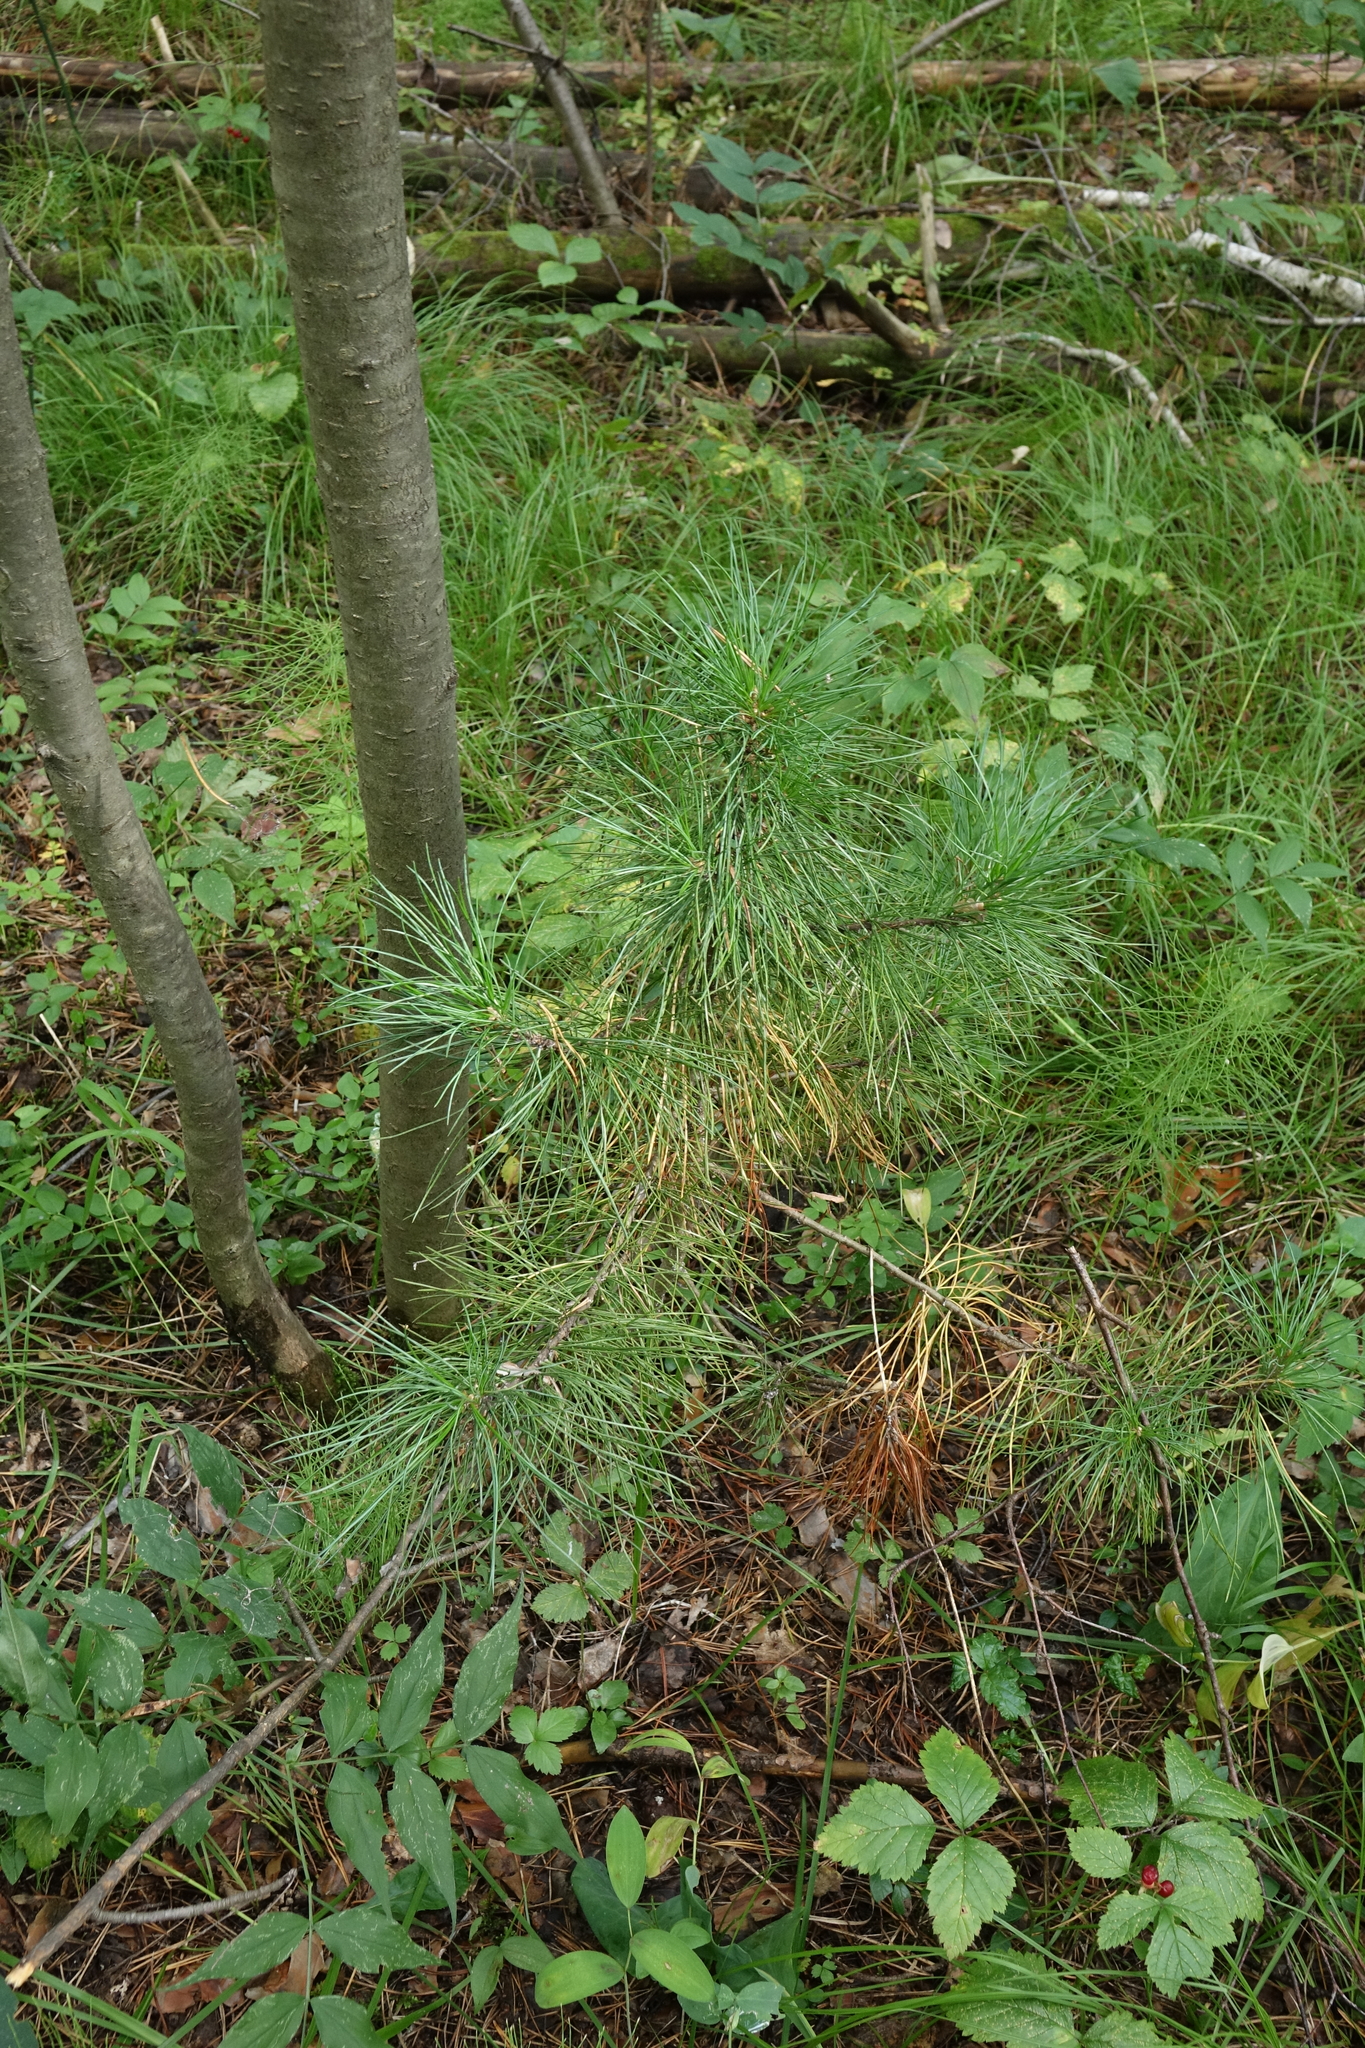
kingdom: Plantae
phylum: Tracheophyta
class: Pinopsida
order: Pinales
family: Pinaceae
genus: Pinus
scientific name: Pinus sibirica
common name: Siberian pine
